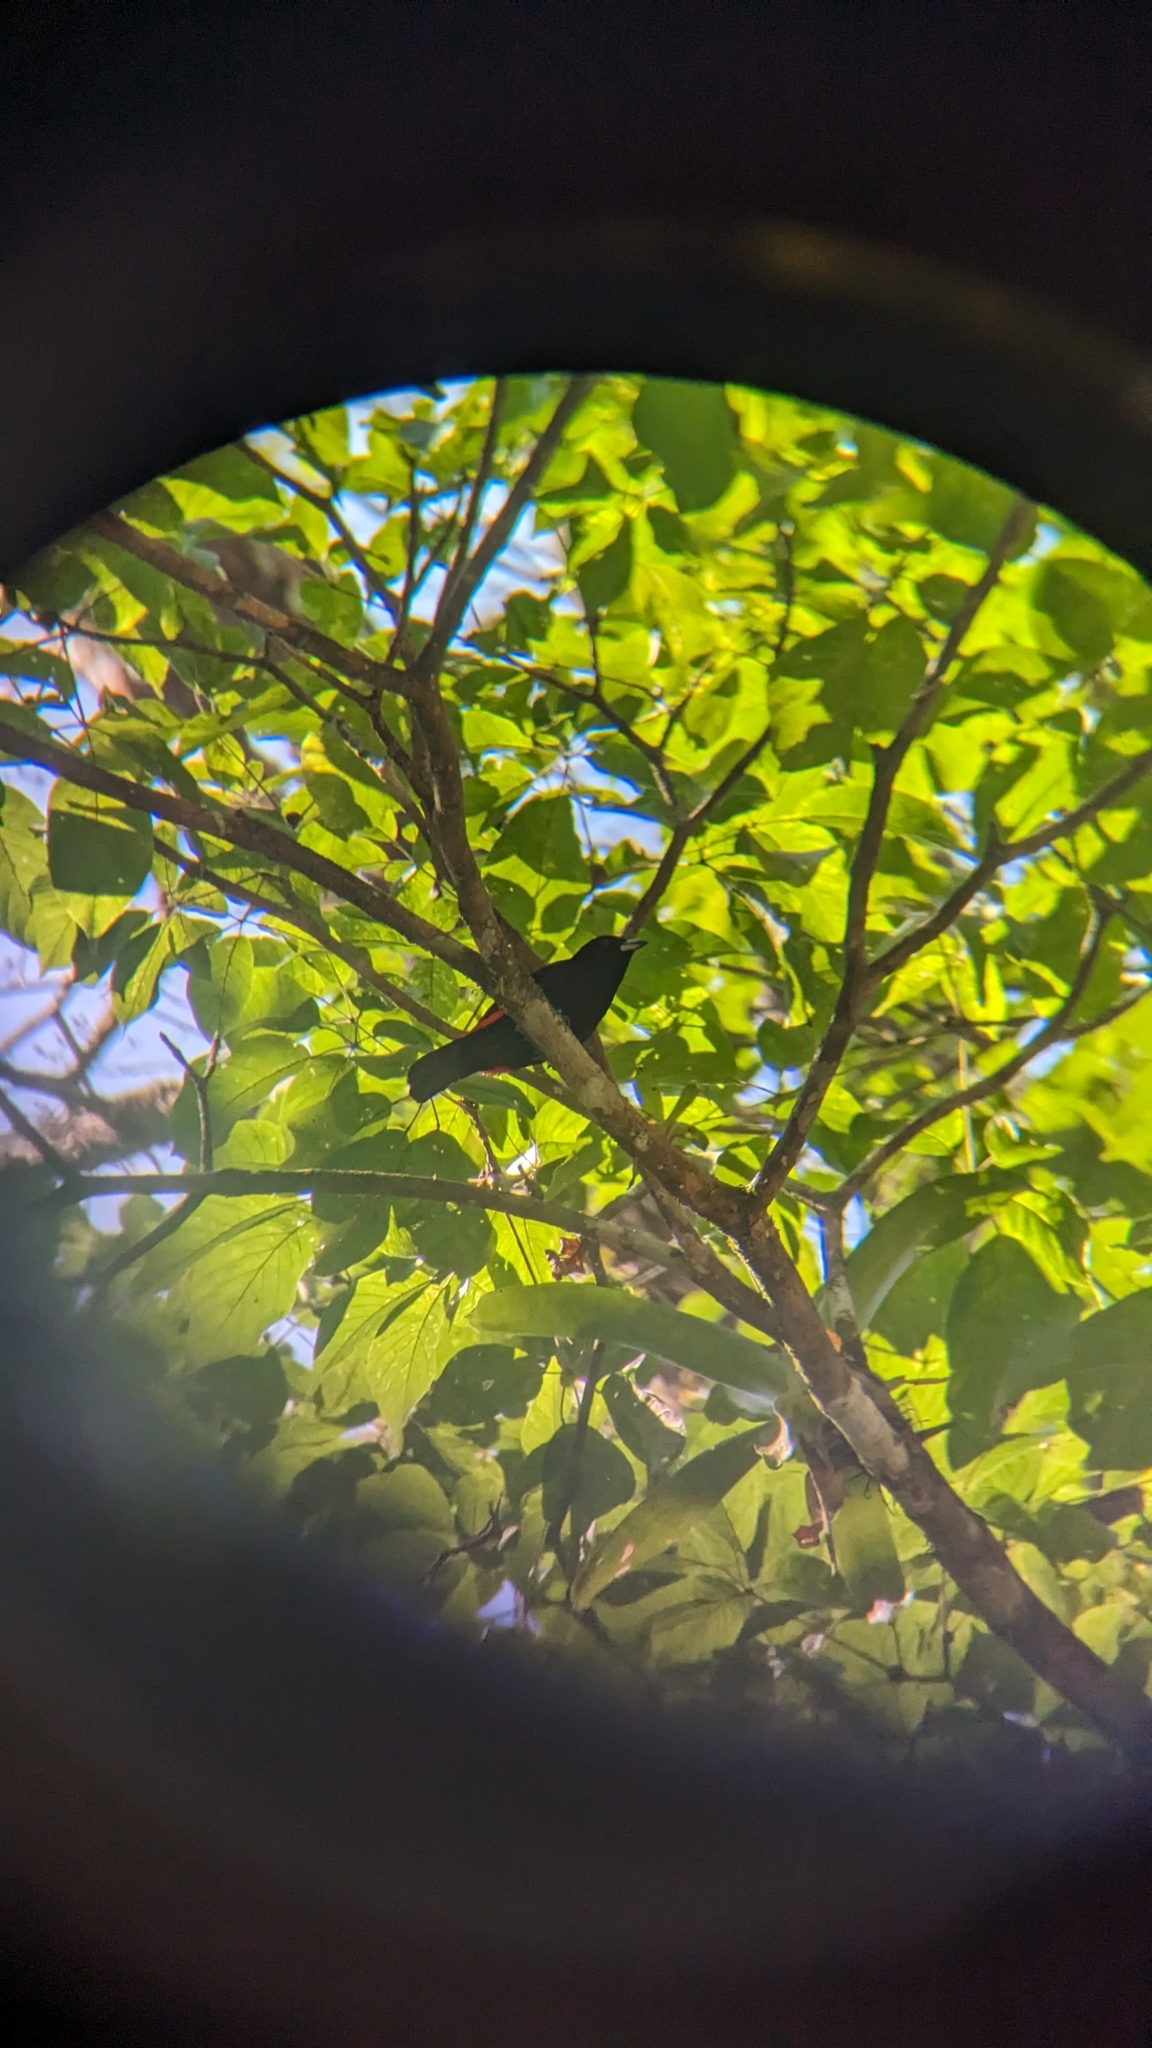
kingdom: Animalia
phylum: Chordata
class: Aves
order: Passeriformes
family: Thraupidae
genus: Ramphocelus
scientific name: Ramphocelus passerinii
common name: Passerini's tanager
